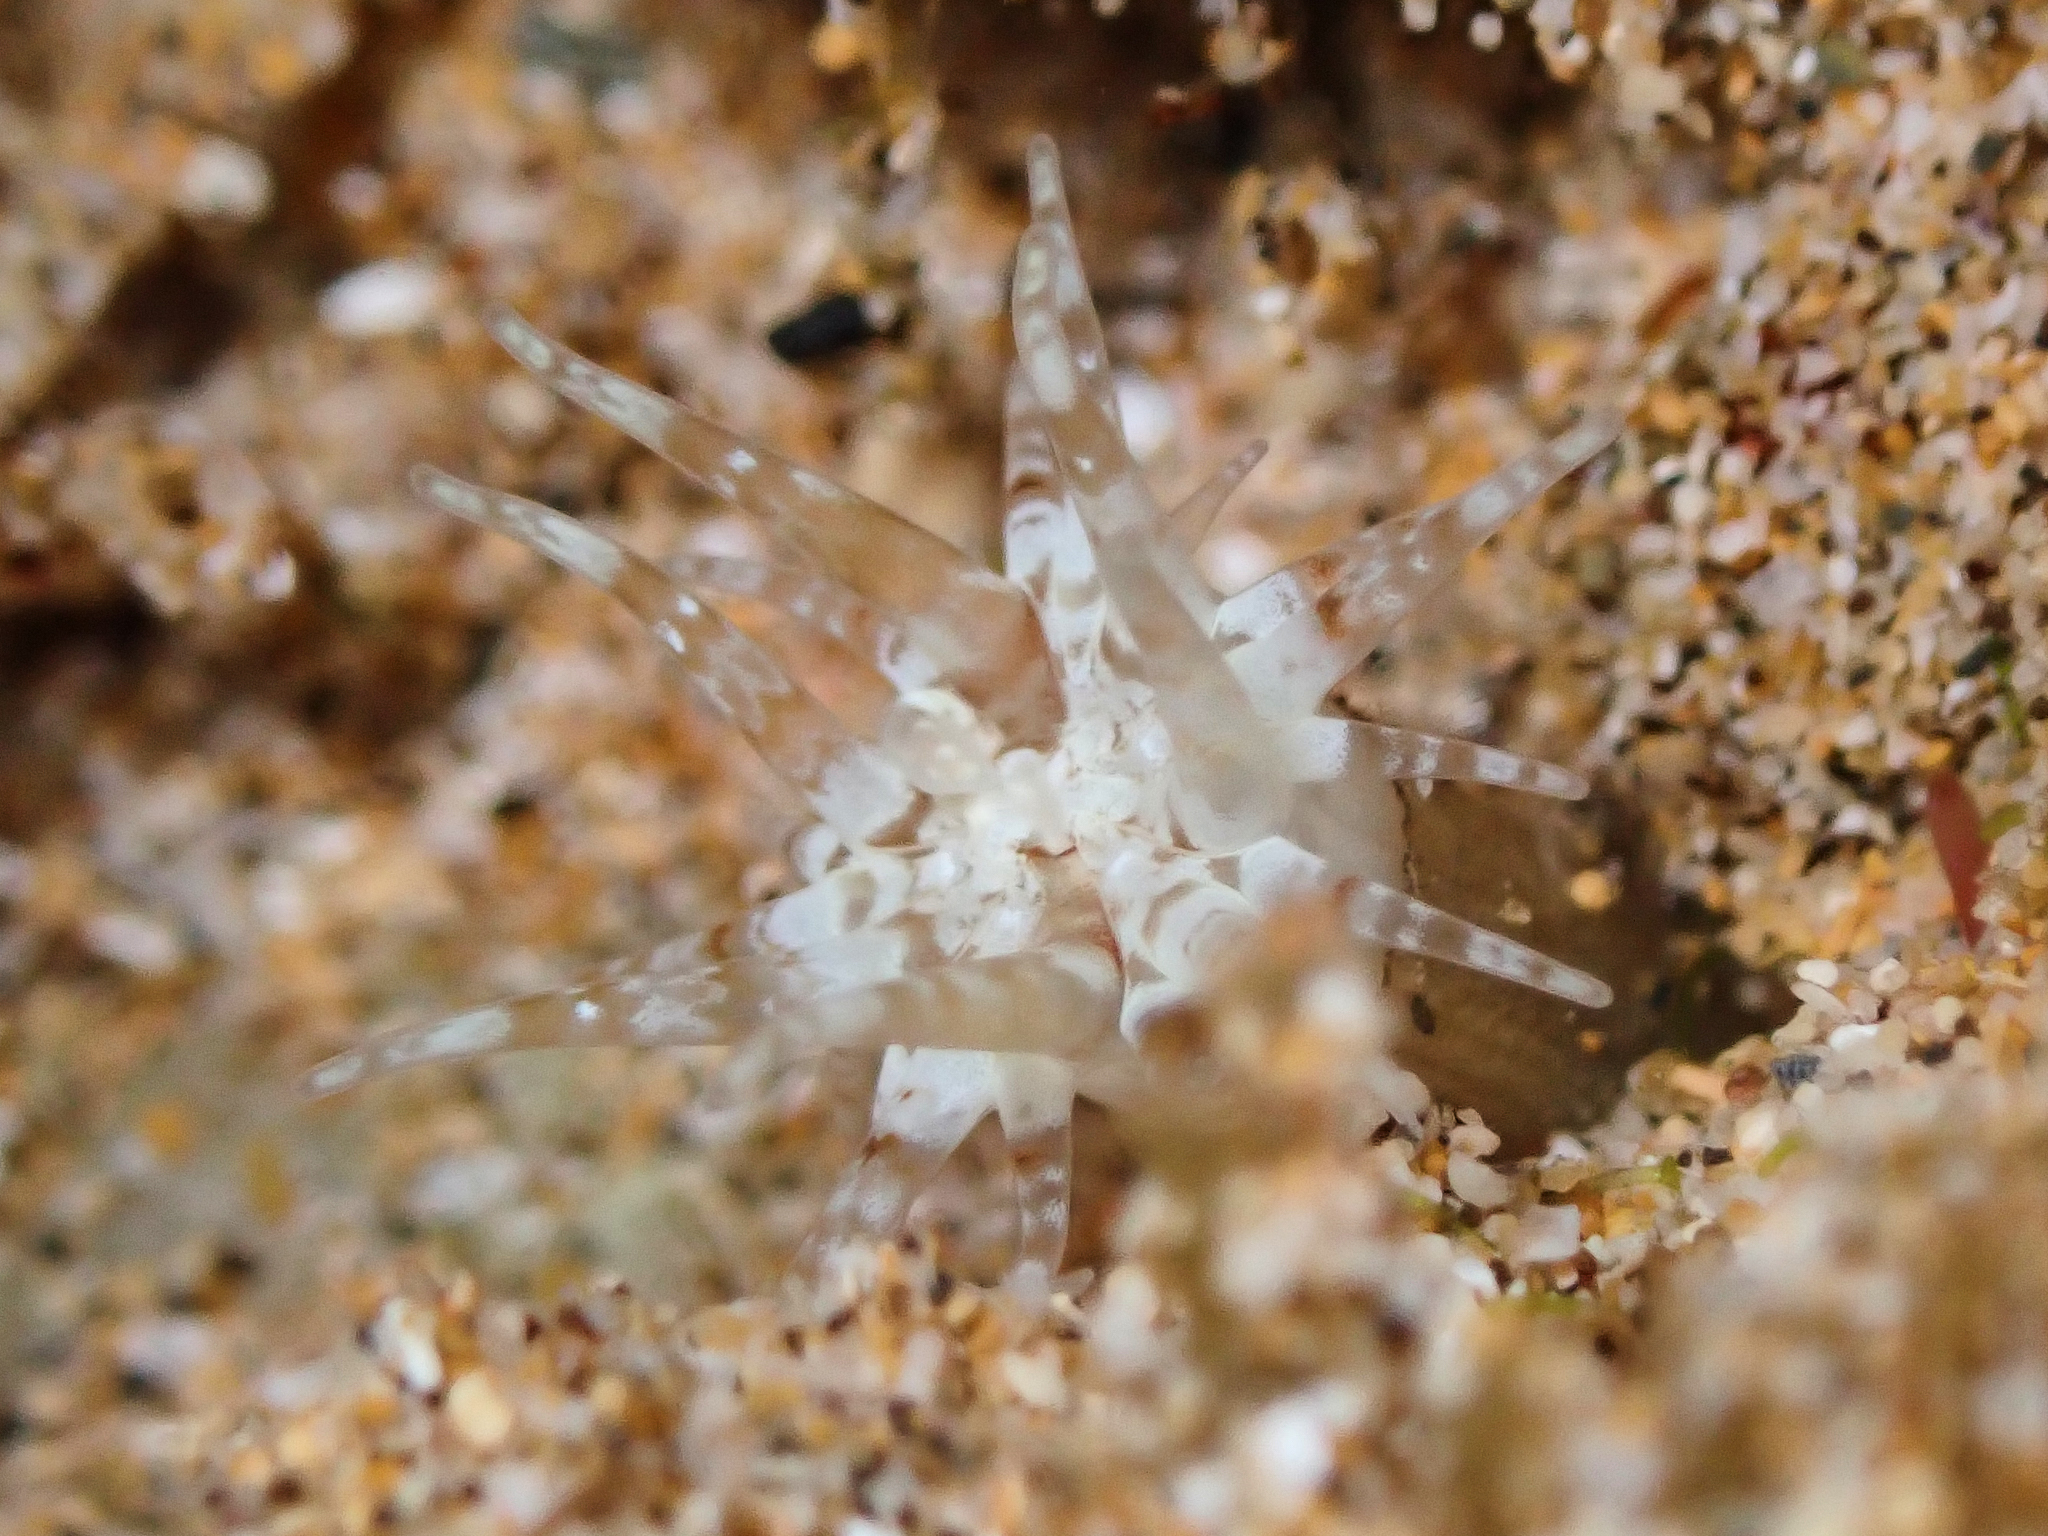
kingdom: Animalia
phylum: Cnidaria
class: Anthozoa
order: Actiniaria
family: Andvakiidae
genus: Andvakia
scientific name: Andvakia discipulorum
